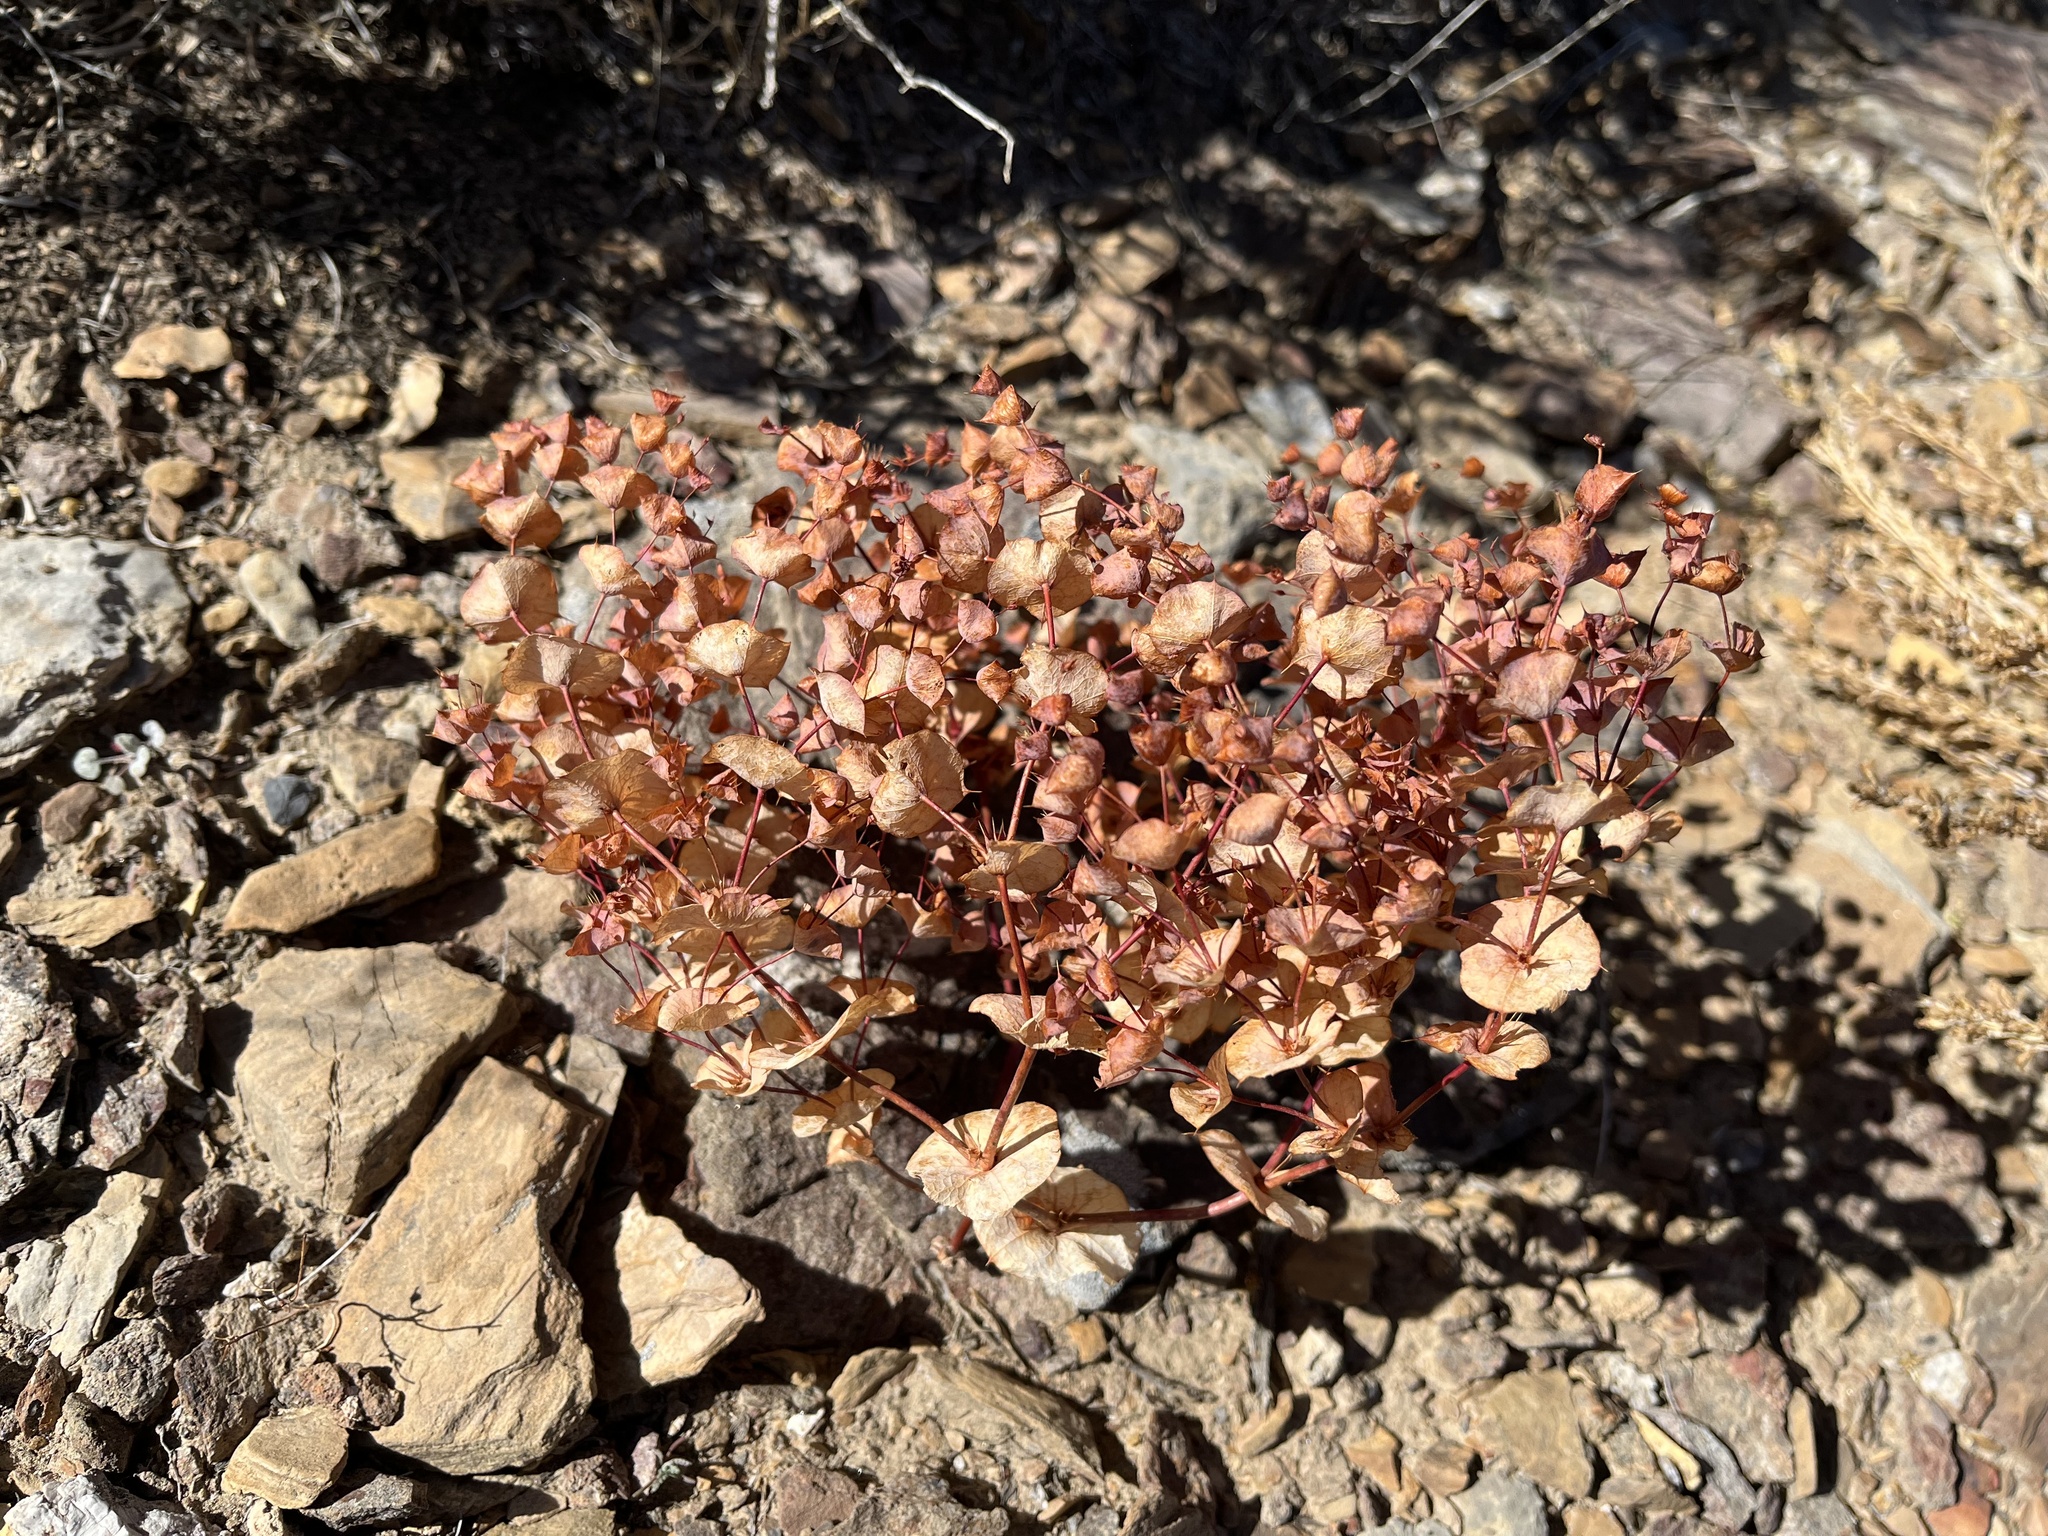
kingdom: Plantae
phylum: Tracheophyta
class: Magnoliopsida
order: Caryophyllales
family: Polygonaceae
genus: Oxytheca
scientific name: Oxytheca perfoliata
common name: Round-leaf puncturebract
